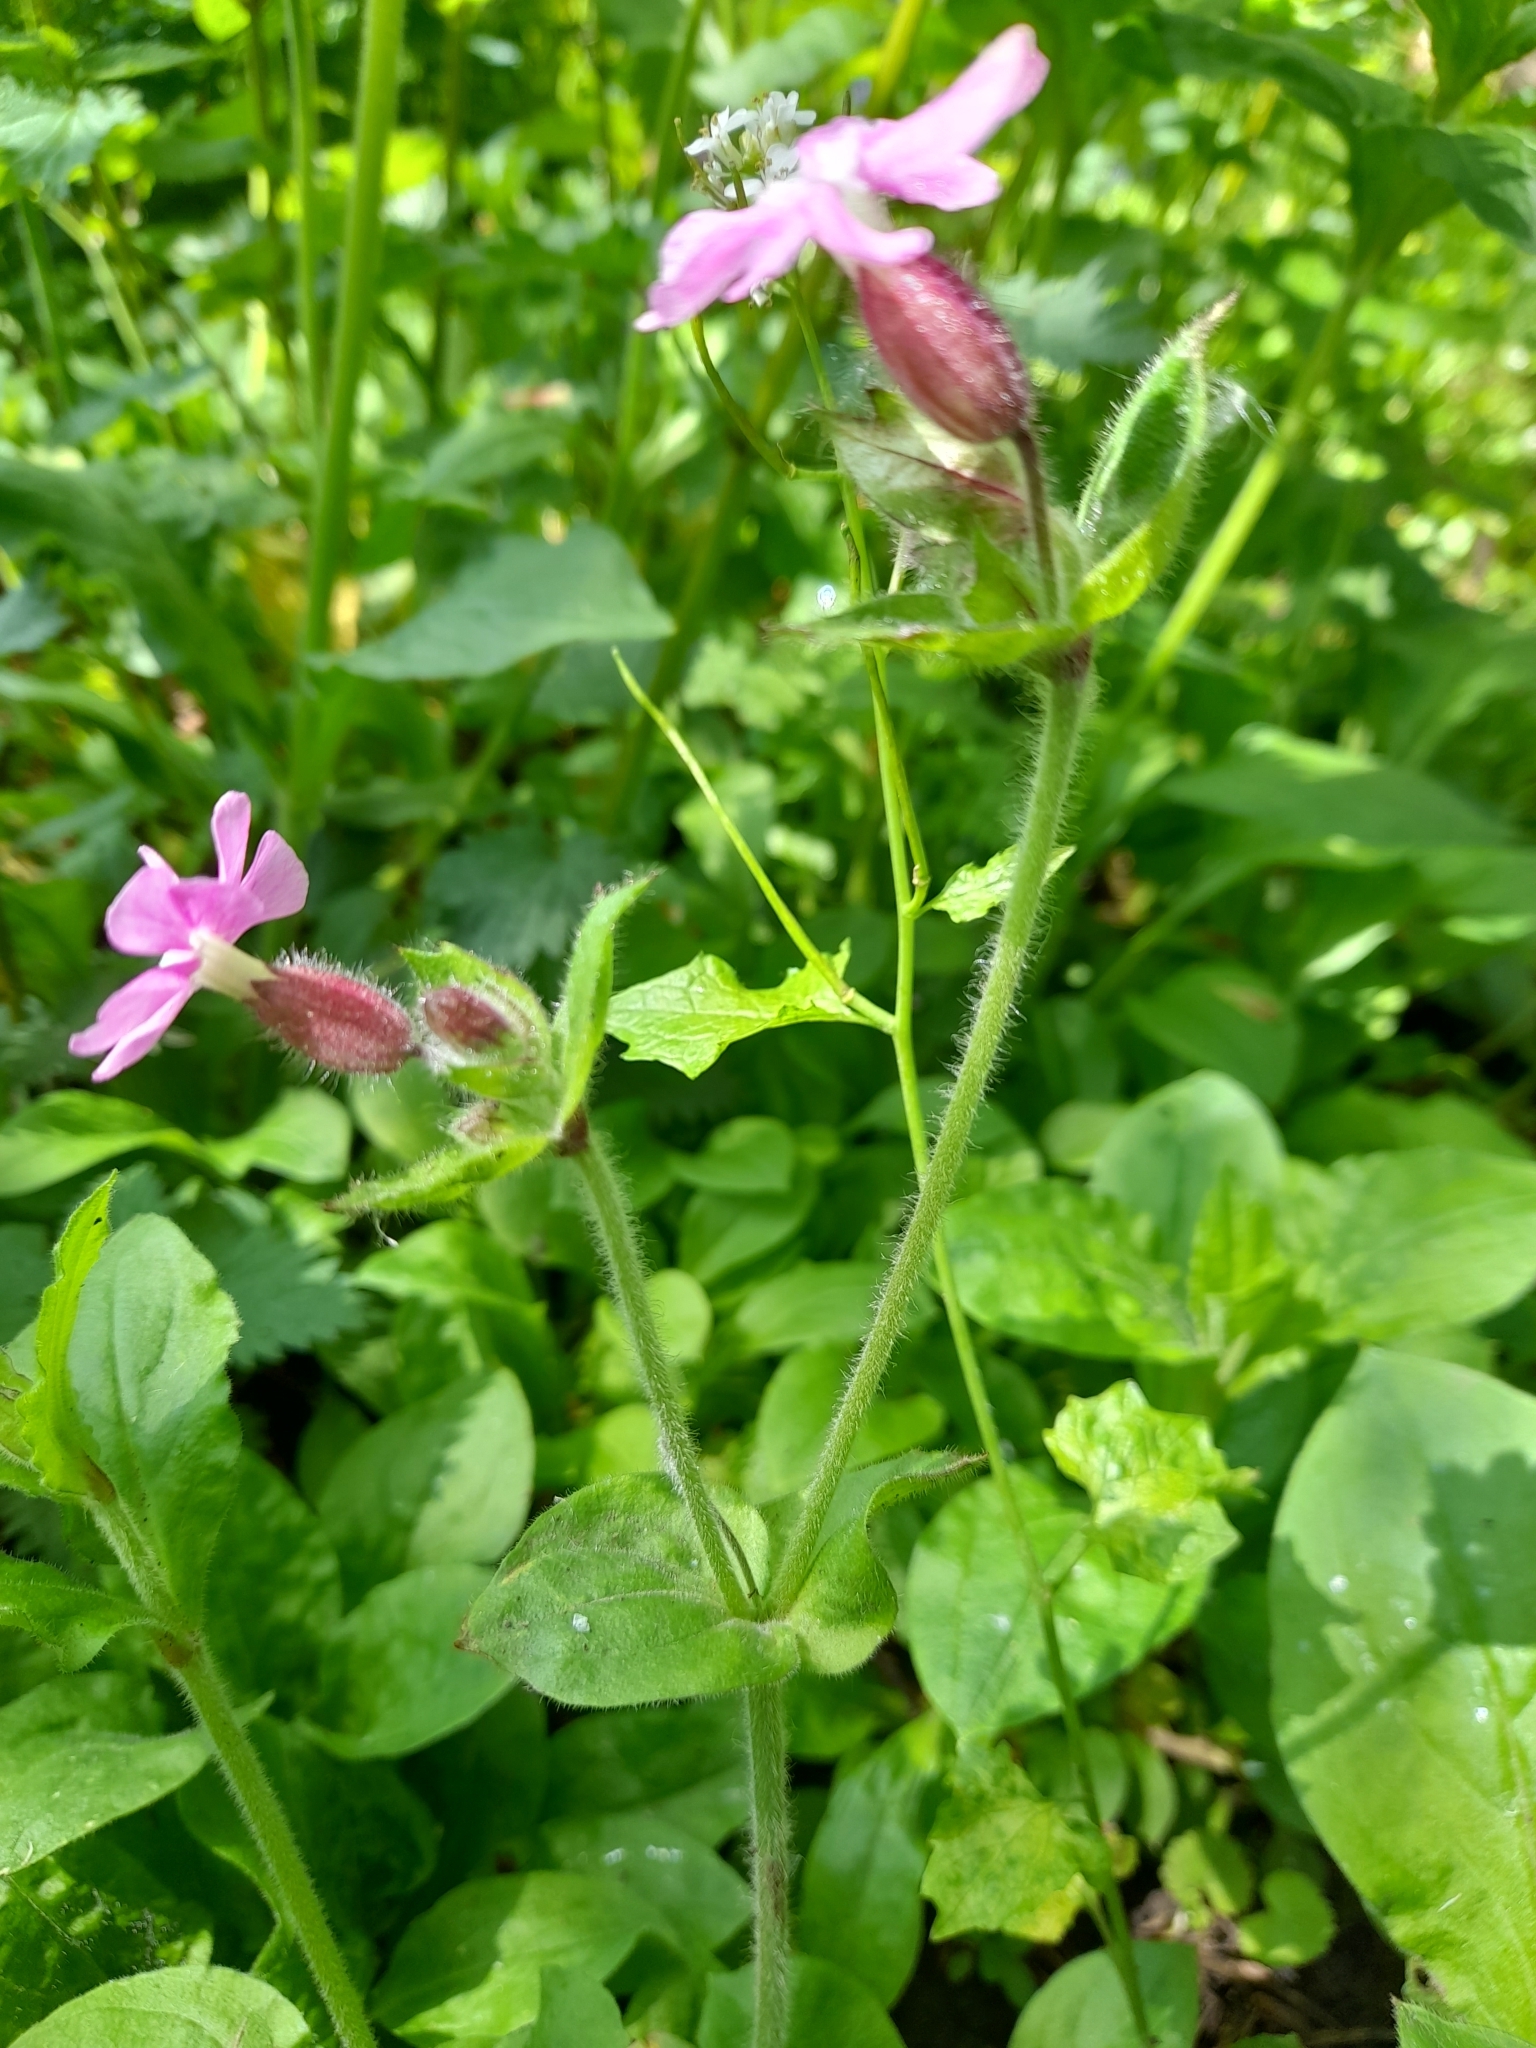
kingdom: Plantae
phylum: Tracheophyta
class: Magnoliopsida
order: Caryophyllales
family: Caryophyllaceae
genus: Silene
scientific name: Silene dioica
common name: Red campion
